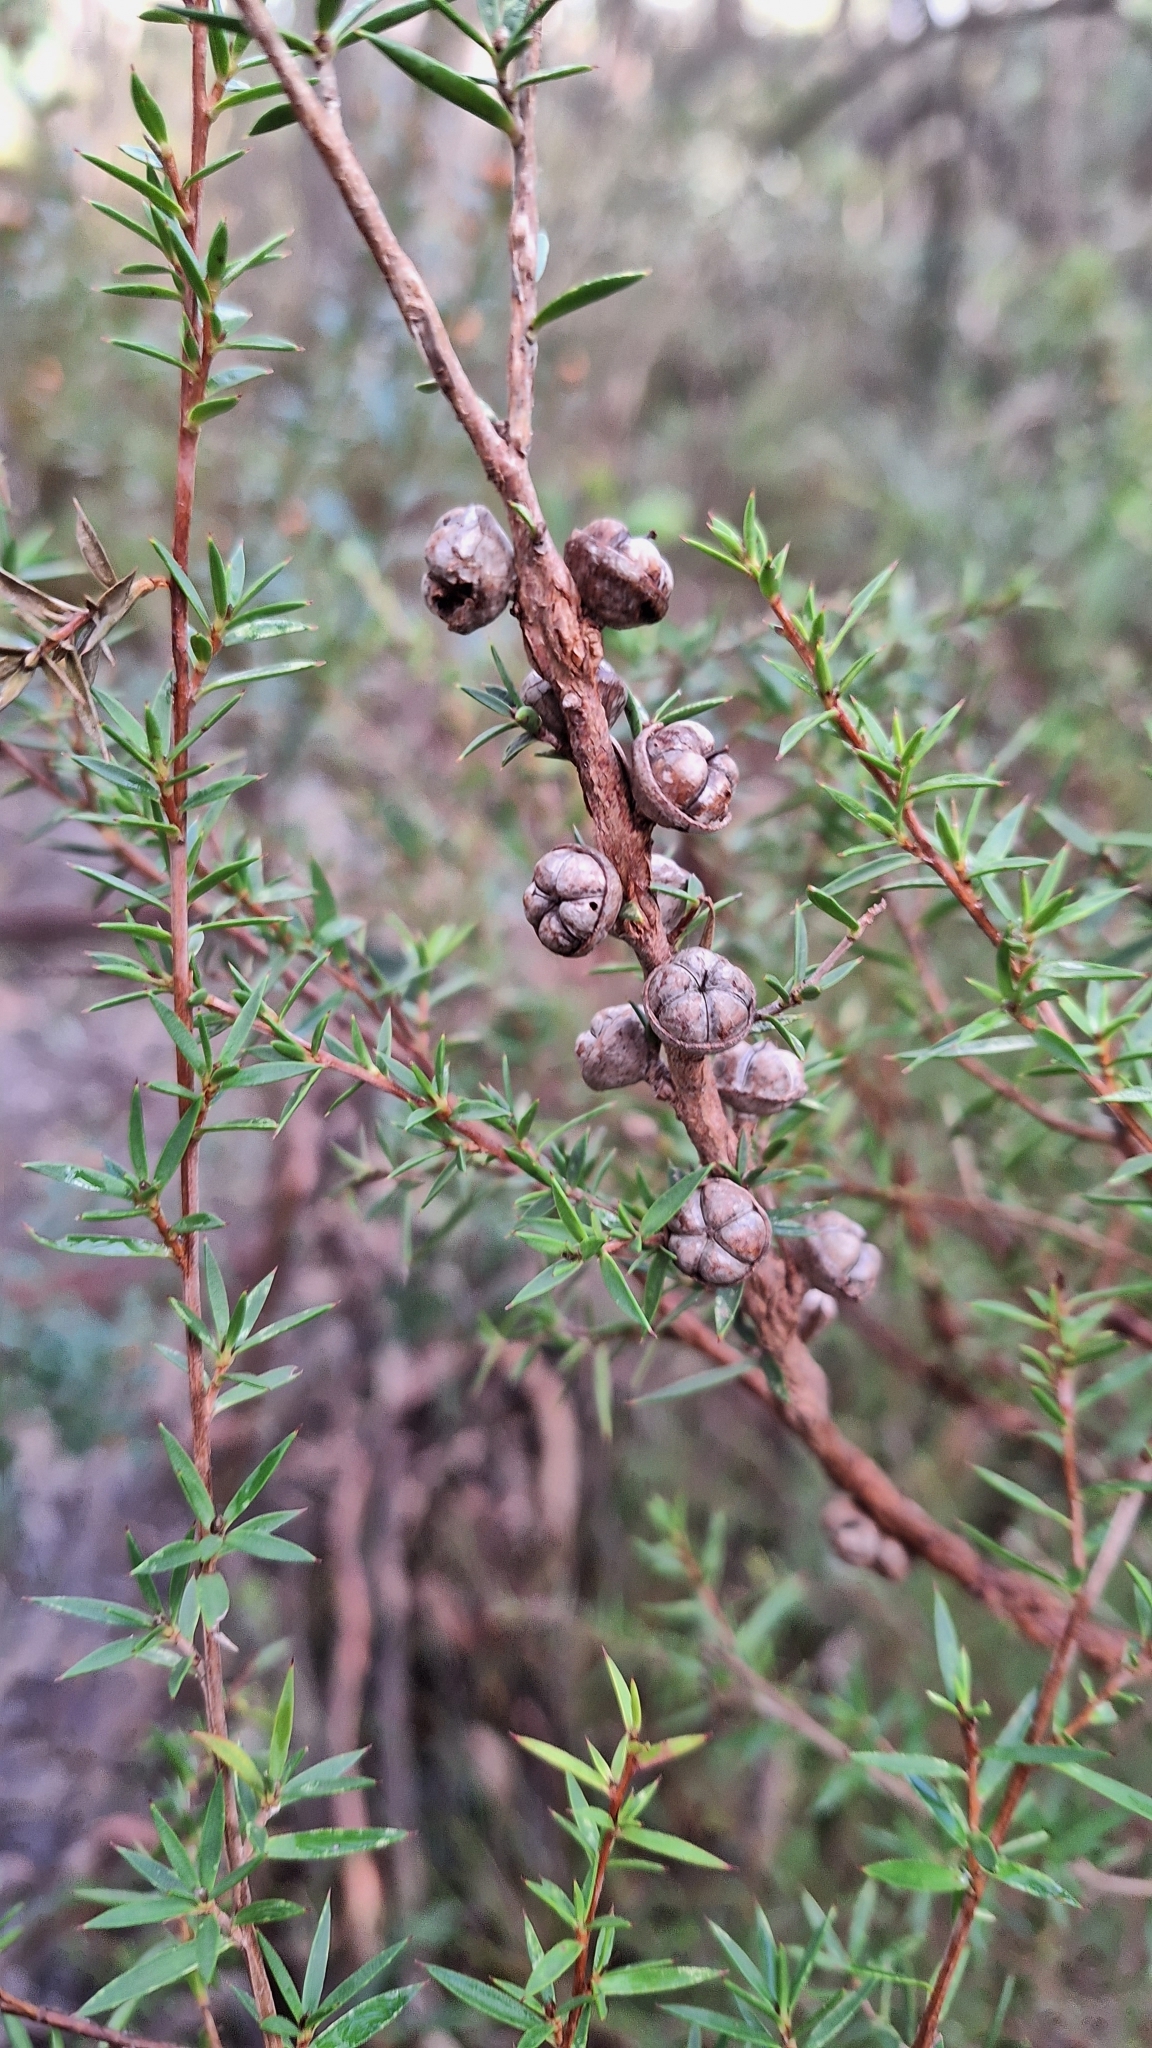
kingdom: Plantae
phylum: Tracheophyta
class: Magnoliopsida
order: Myrtales
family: Myrtaceae
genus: Leptospermum
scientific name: Leptospermum continentale
